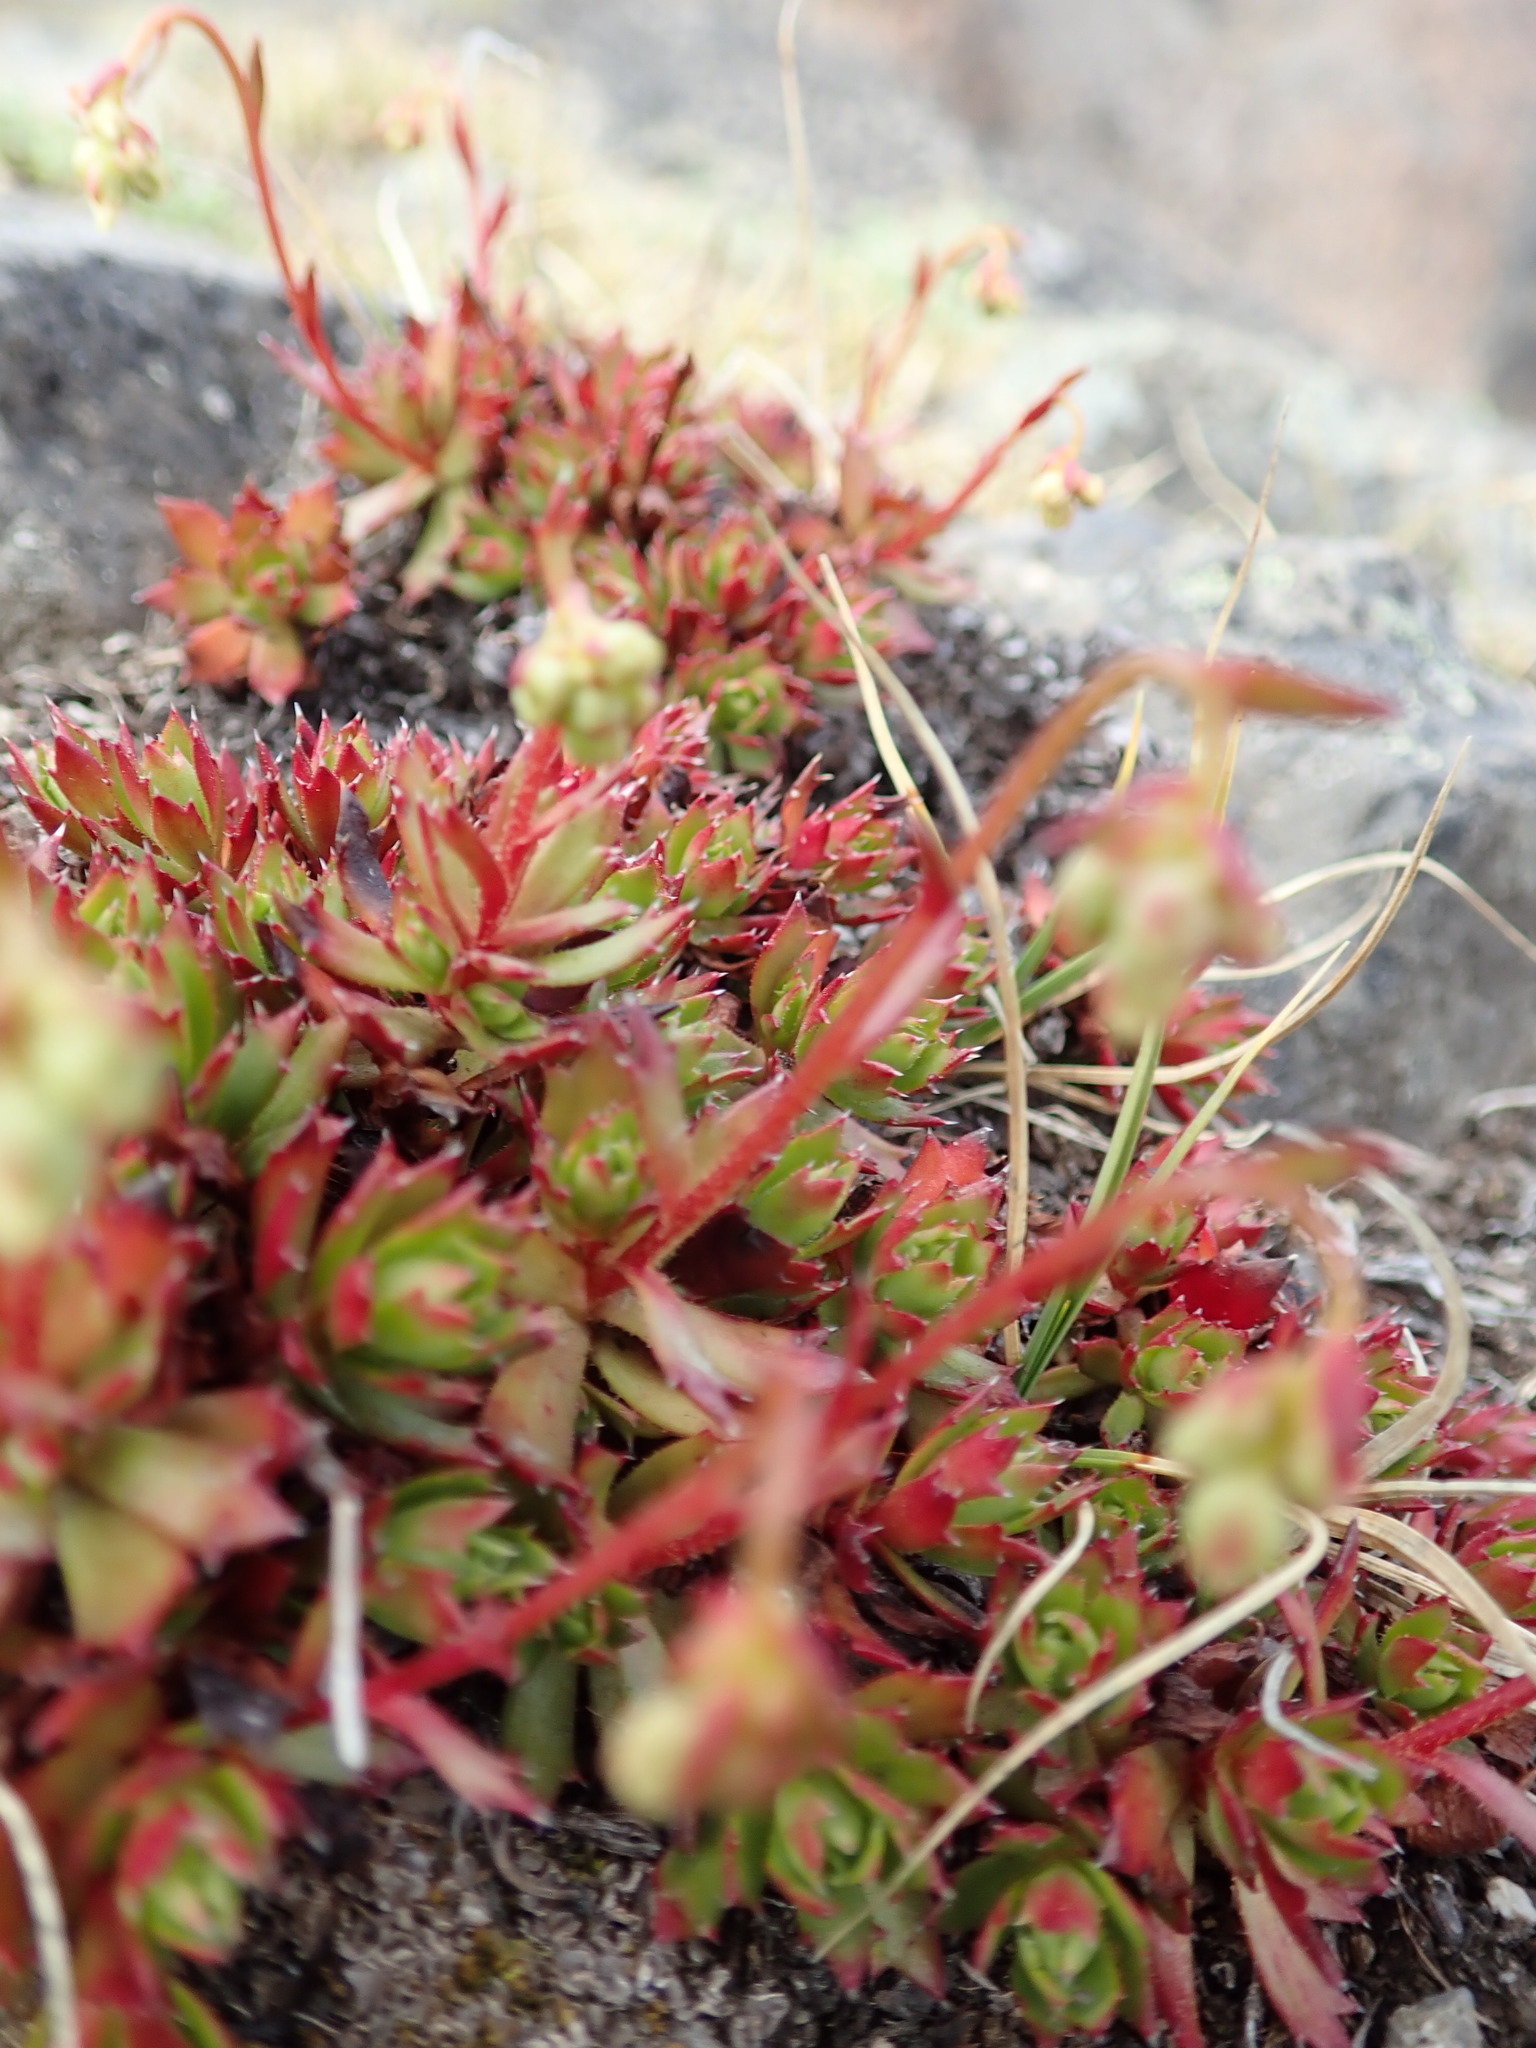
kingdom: Plantae
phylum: Tracheophyta
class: Magnoliopsida
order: Saxifragales
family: Saxifragaceae
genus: Saxifraga
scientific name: Saxifraga tricuspidata
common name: Prickly saxifrage
